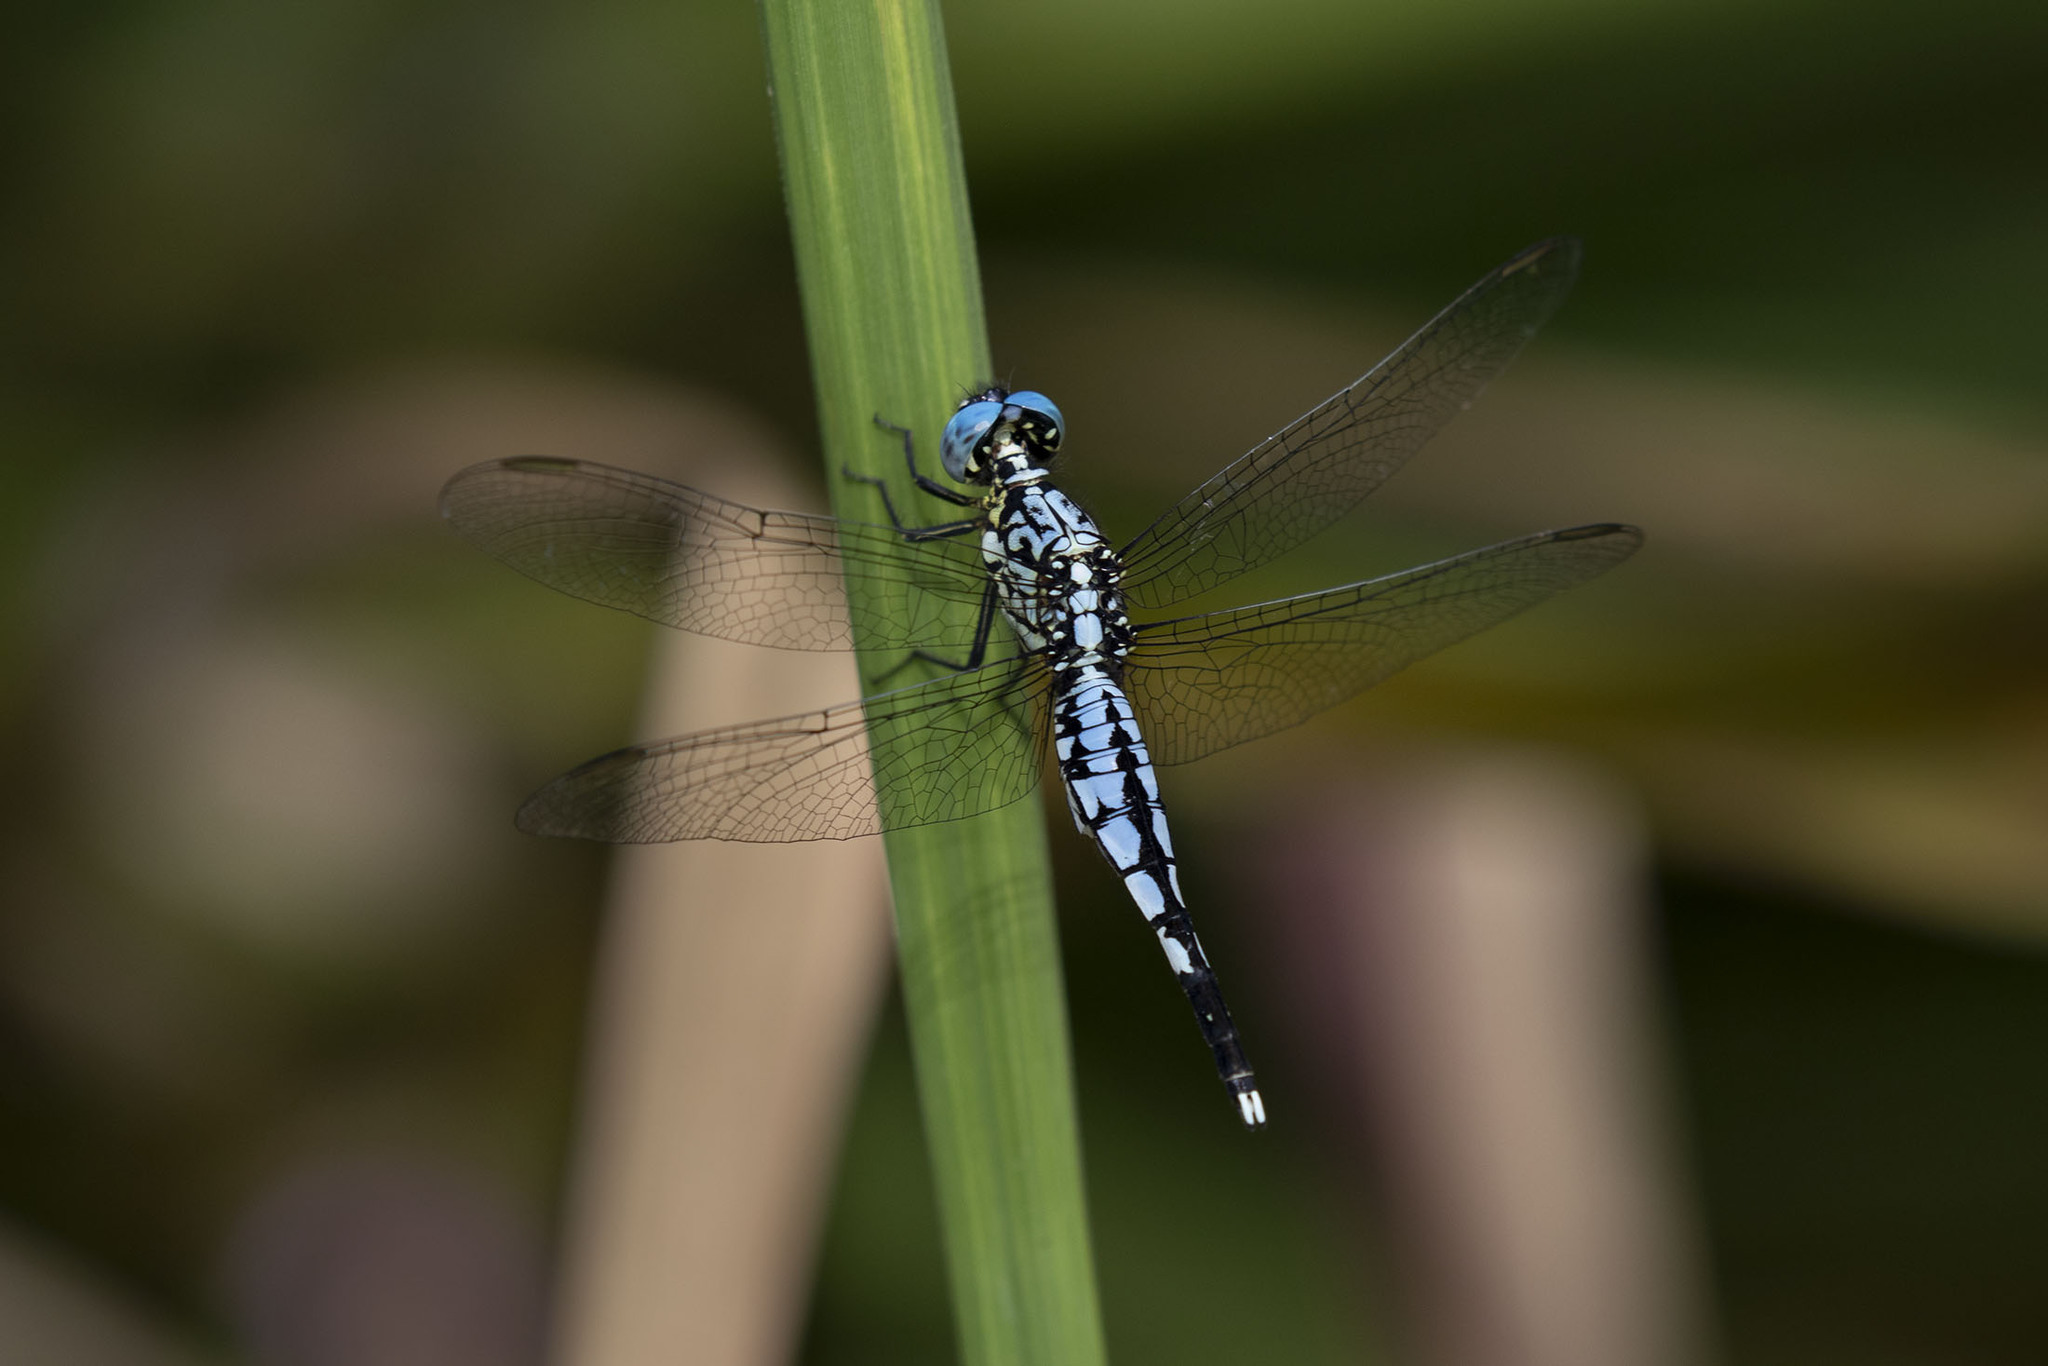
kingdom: Animalia
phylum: Arthropoda
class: Insecta
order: Odonata
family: Libellulidae
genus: Acisoma
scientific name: Acisoma attenboroughi
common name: Attenborough’s pintail
